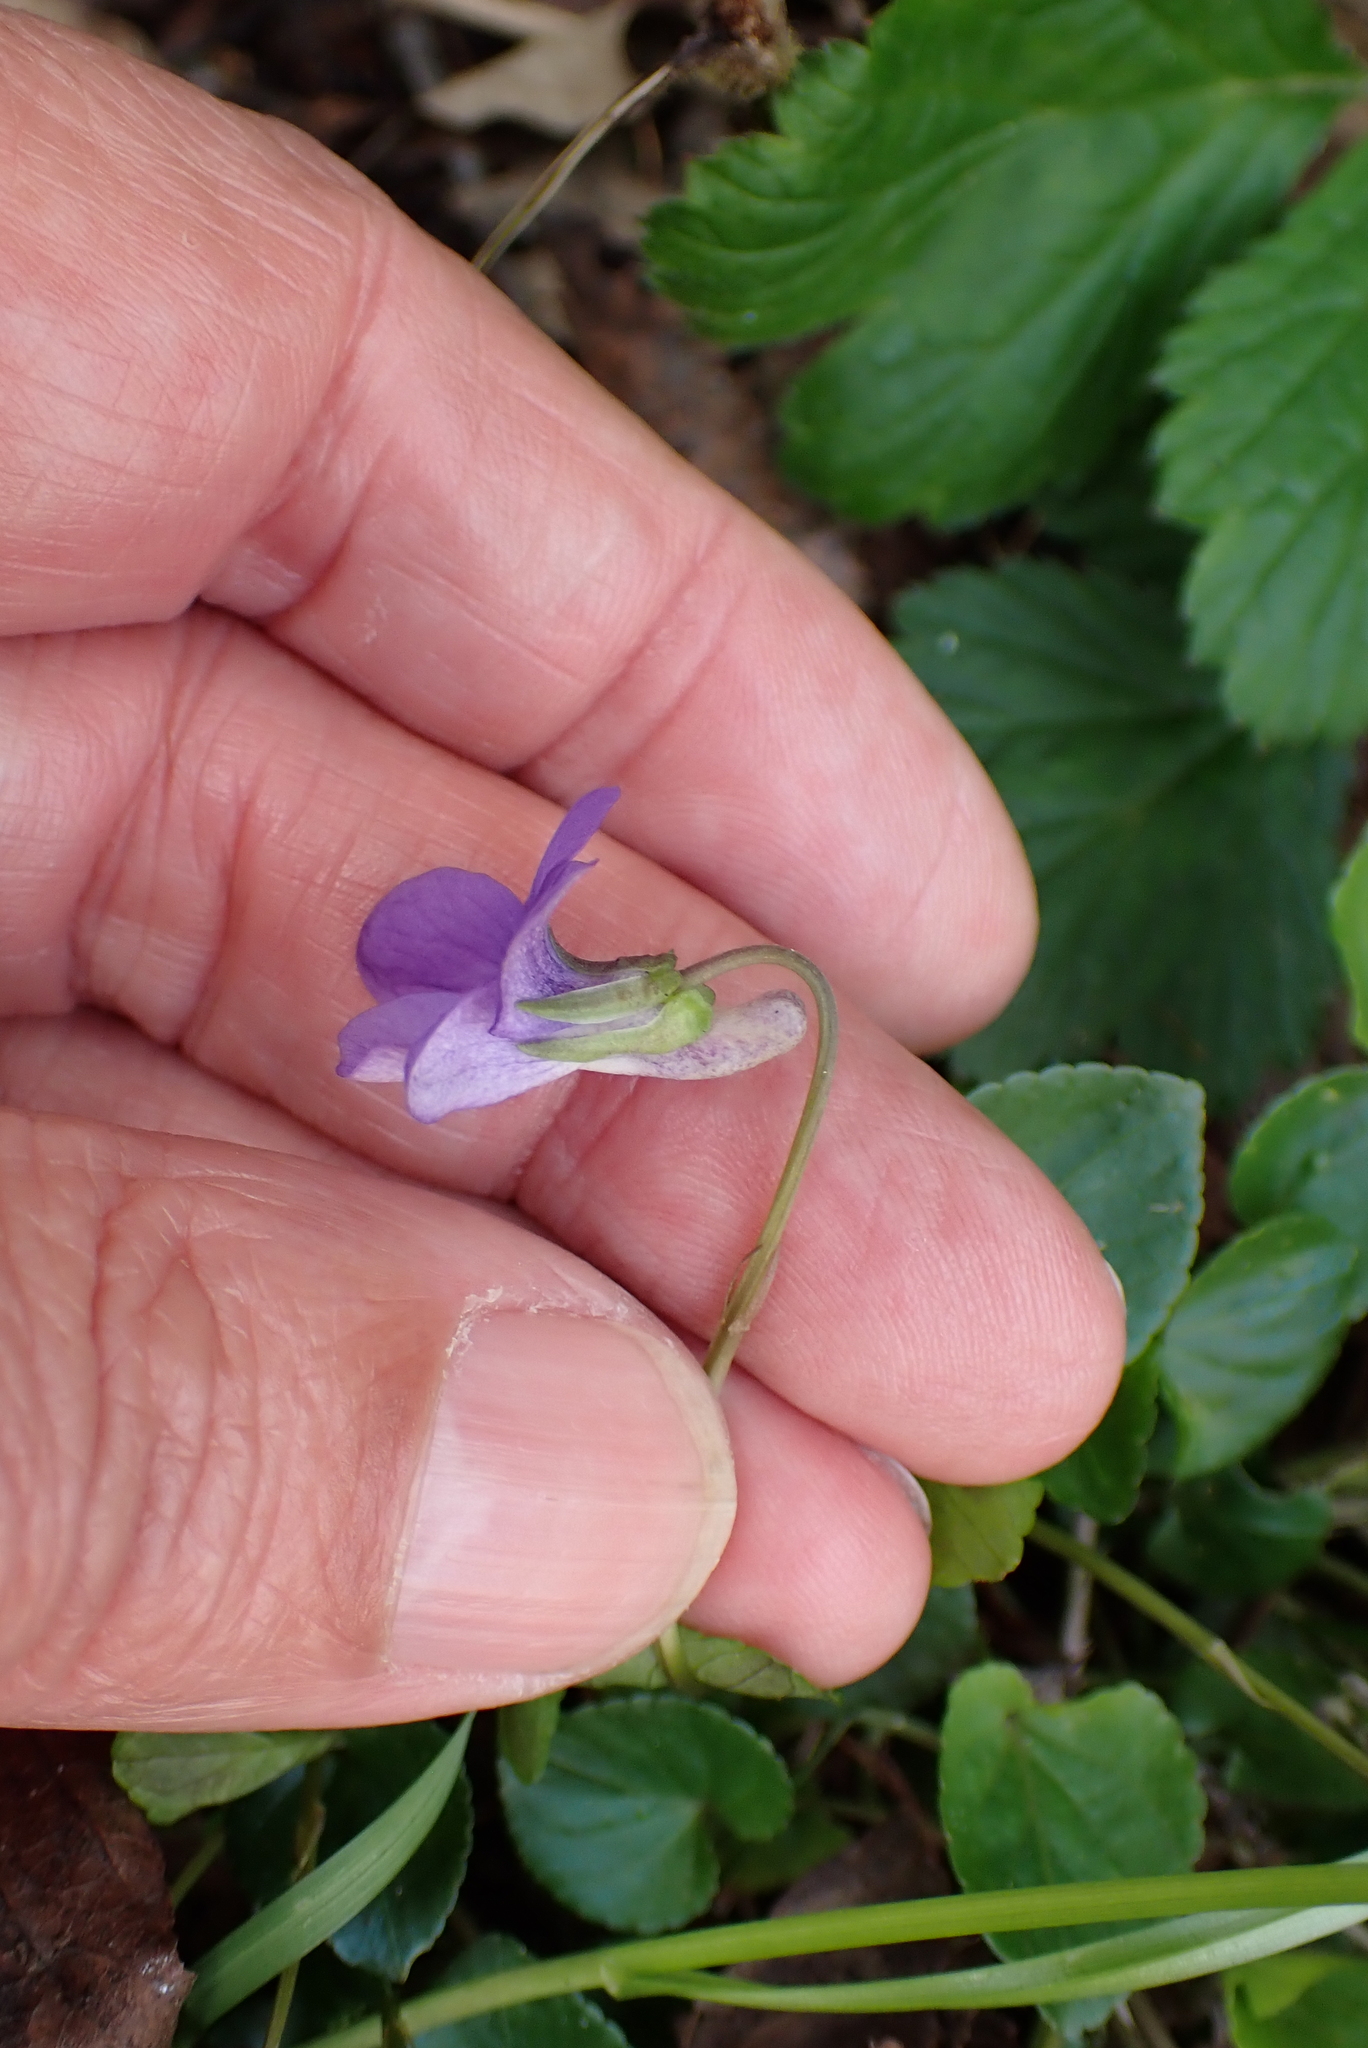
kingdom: Plantae
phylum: Tracheophyta
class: Magnoliopsida
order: Malpighiales
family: Violaceae
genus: Viola
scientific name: Viola riviniana
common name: Common dog-violet
